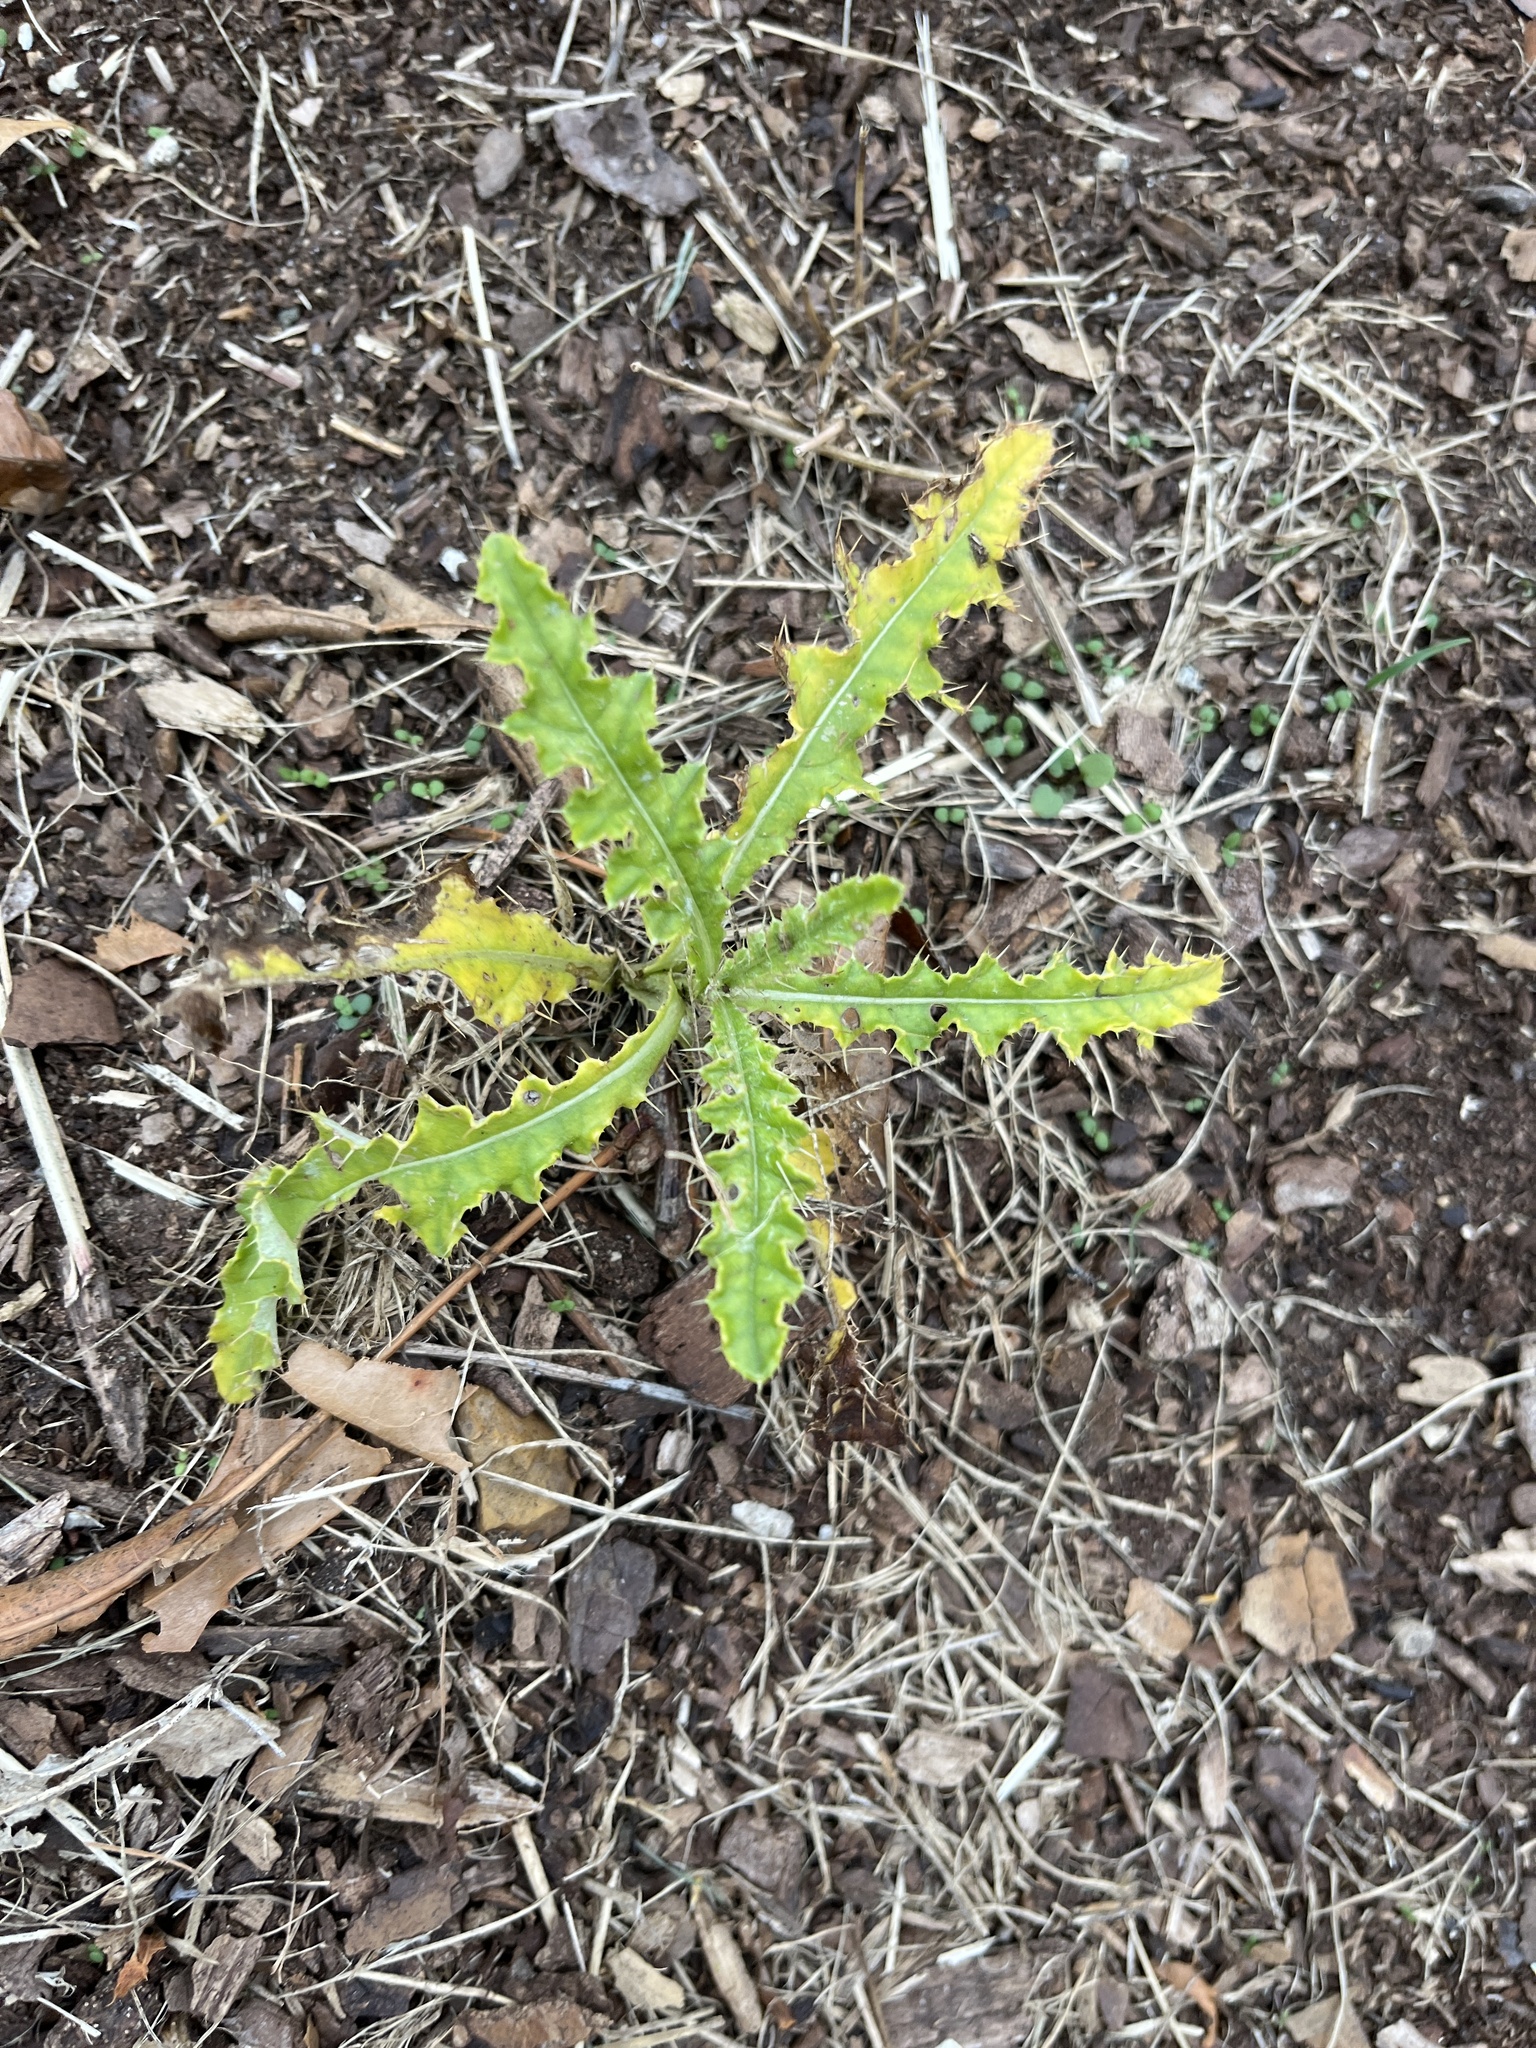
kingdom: Plantae
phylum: Tracheophyta
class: Magnoliopsida
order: Asterales
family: Asteraceae
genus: Cirsium
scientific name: Cirsium arvense
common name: Creeping thistle
